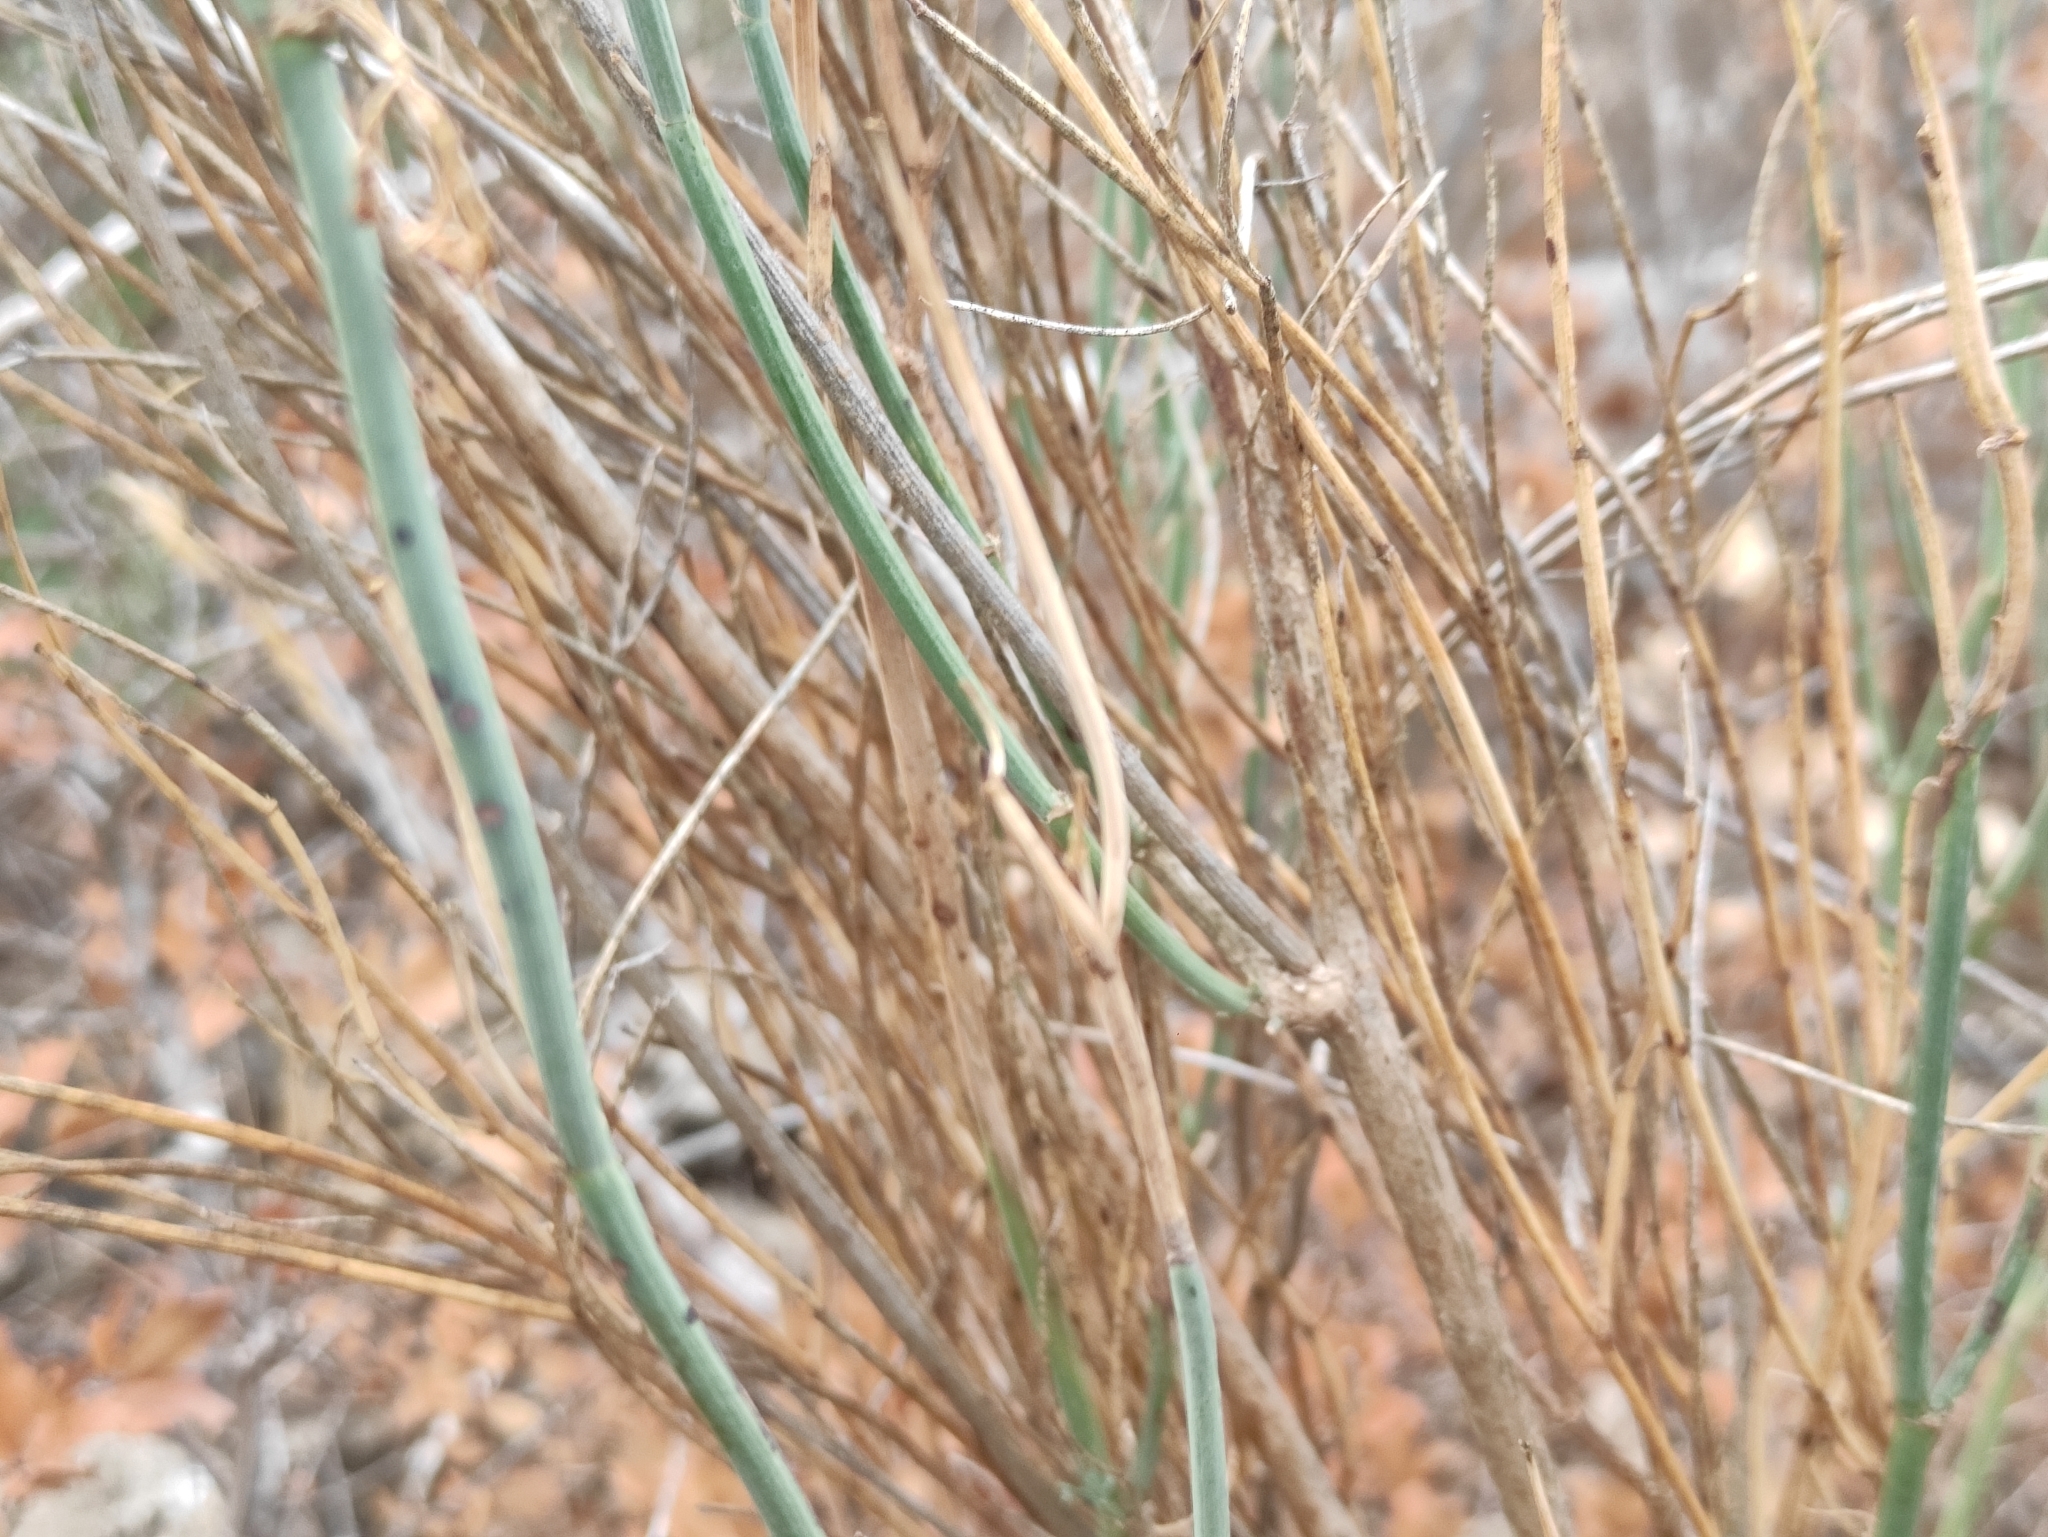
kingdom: Plantae
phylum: Tracheophyta
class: Magnoliopsida
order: Fabales
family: Fabaceae
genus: Coronilla
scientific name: Coronilla juncea
